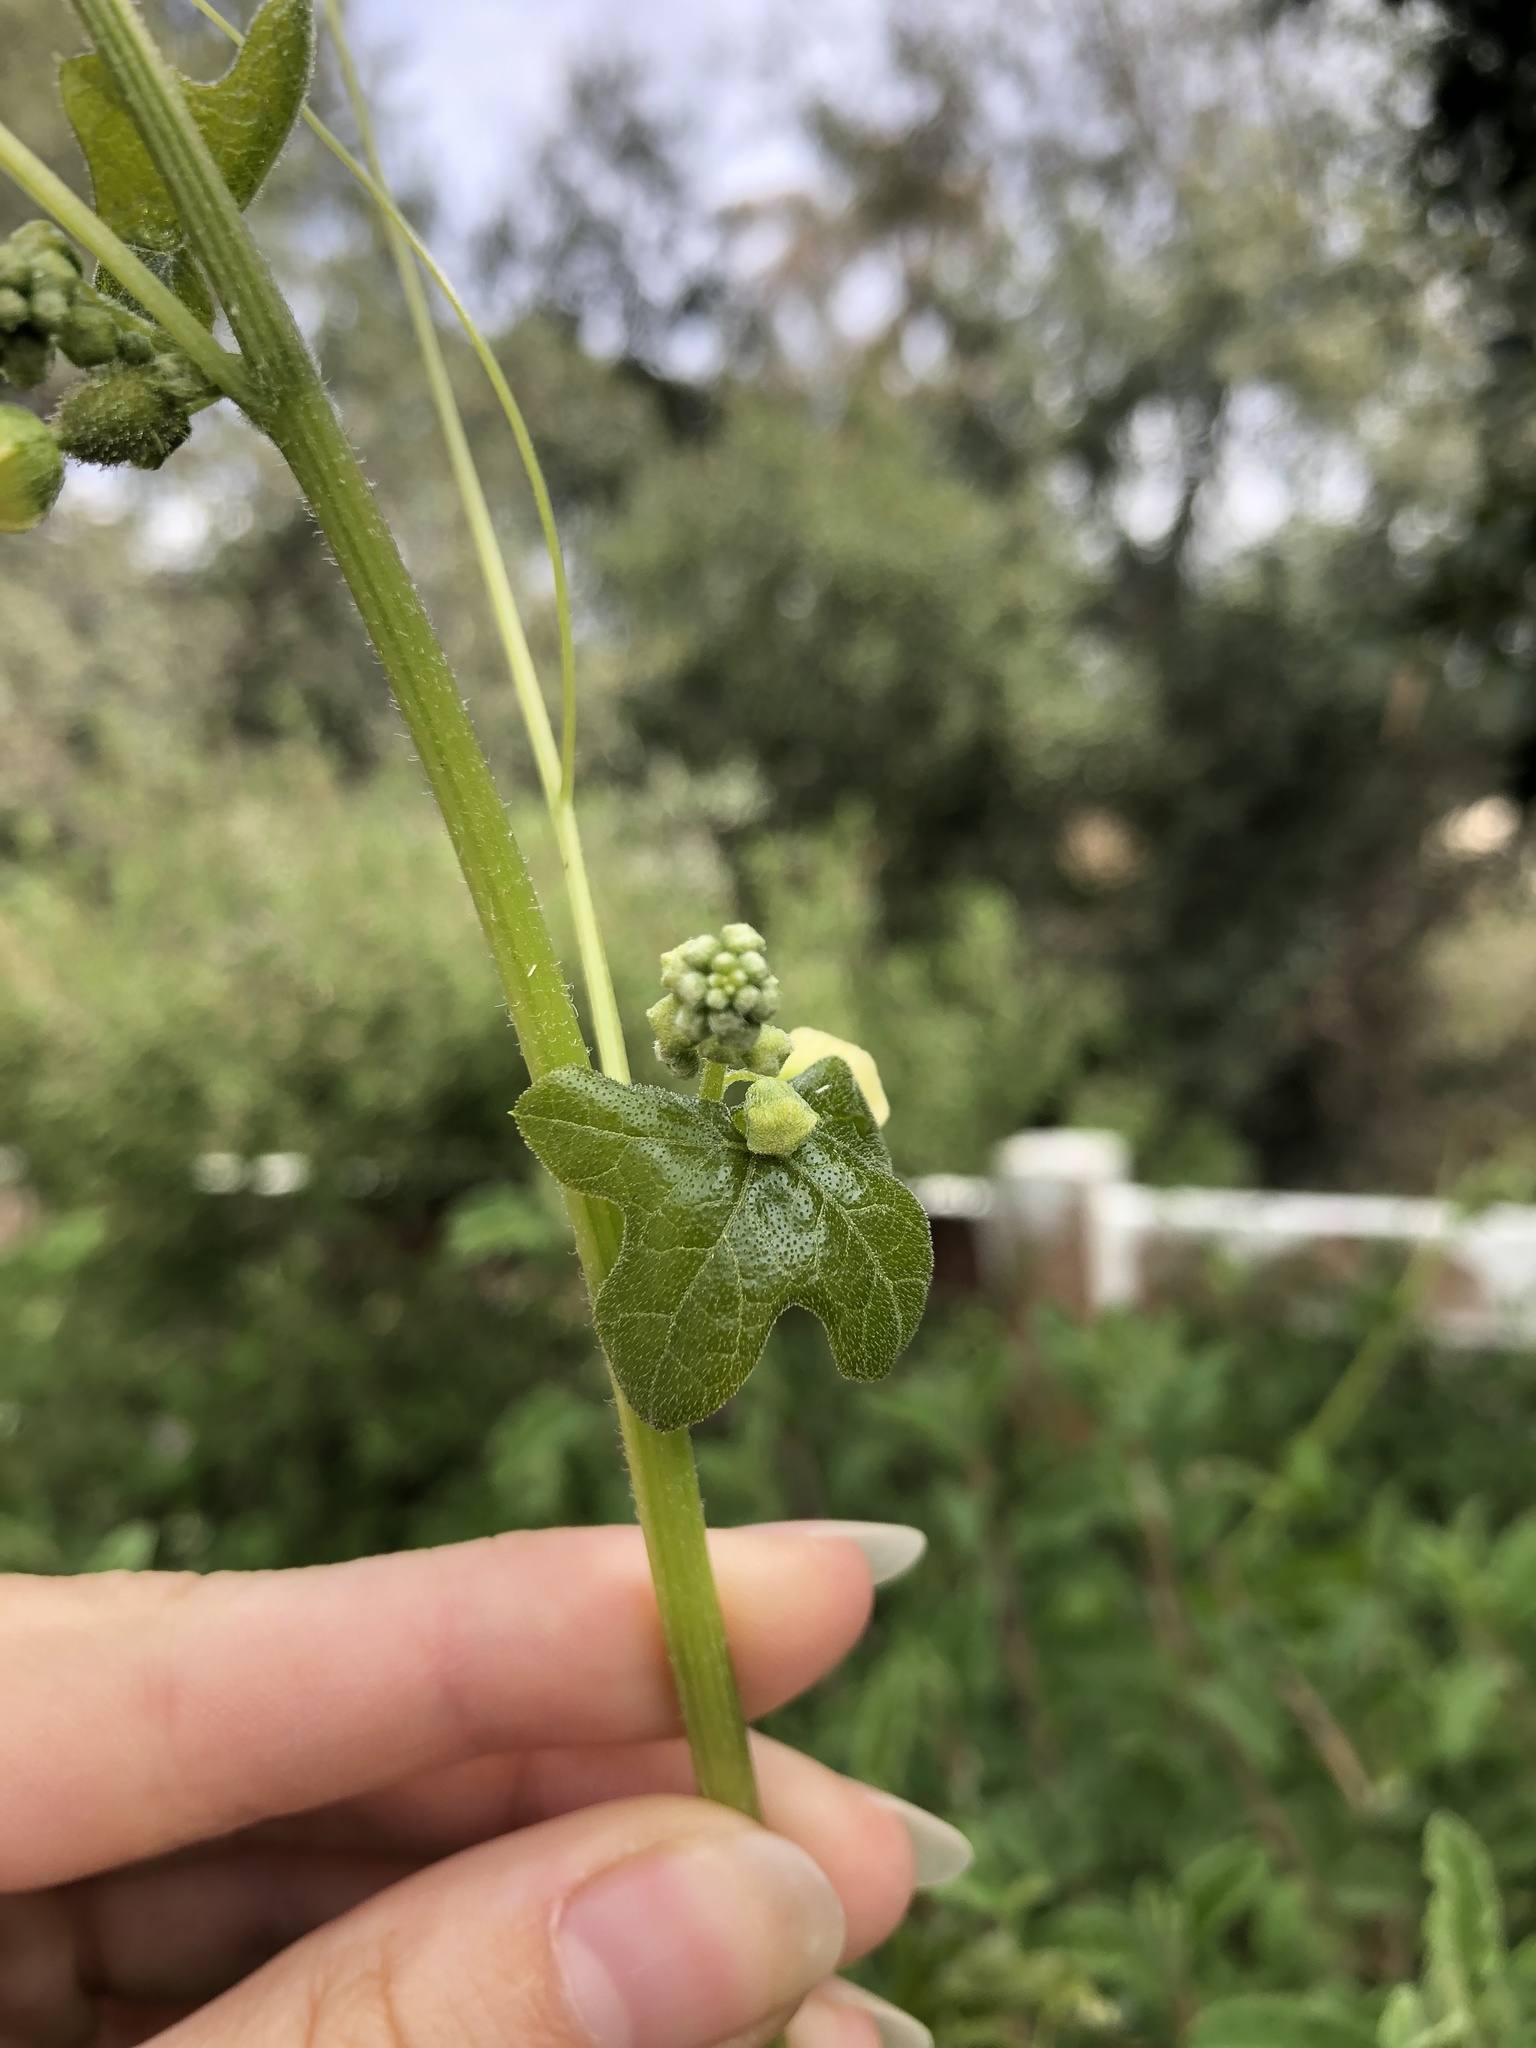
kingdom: Plantae
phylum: Tracheophyta
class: Magnoliopsida
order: Cucurbitales
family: Cucurbitaceae
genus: Marah
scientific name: Marah macrocarpa
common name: Cucamonga manroot
